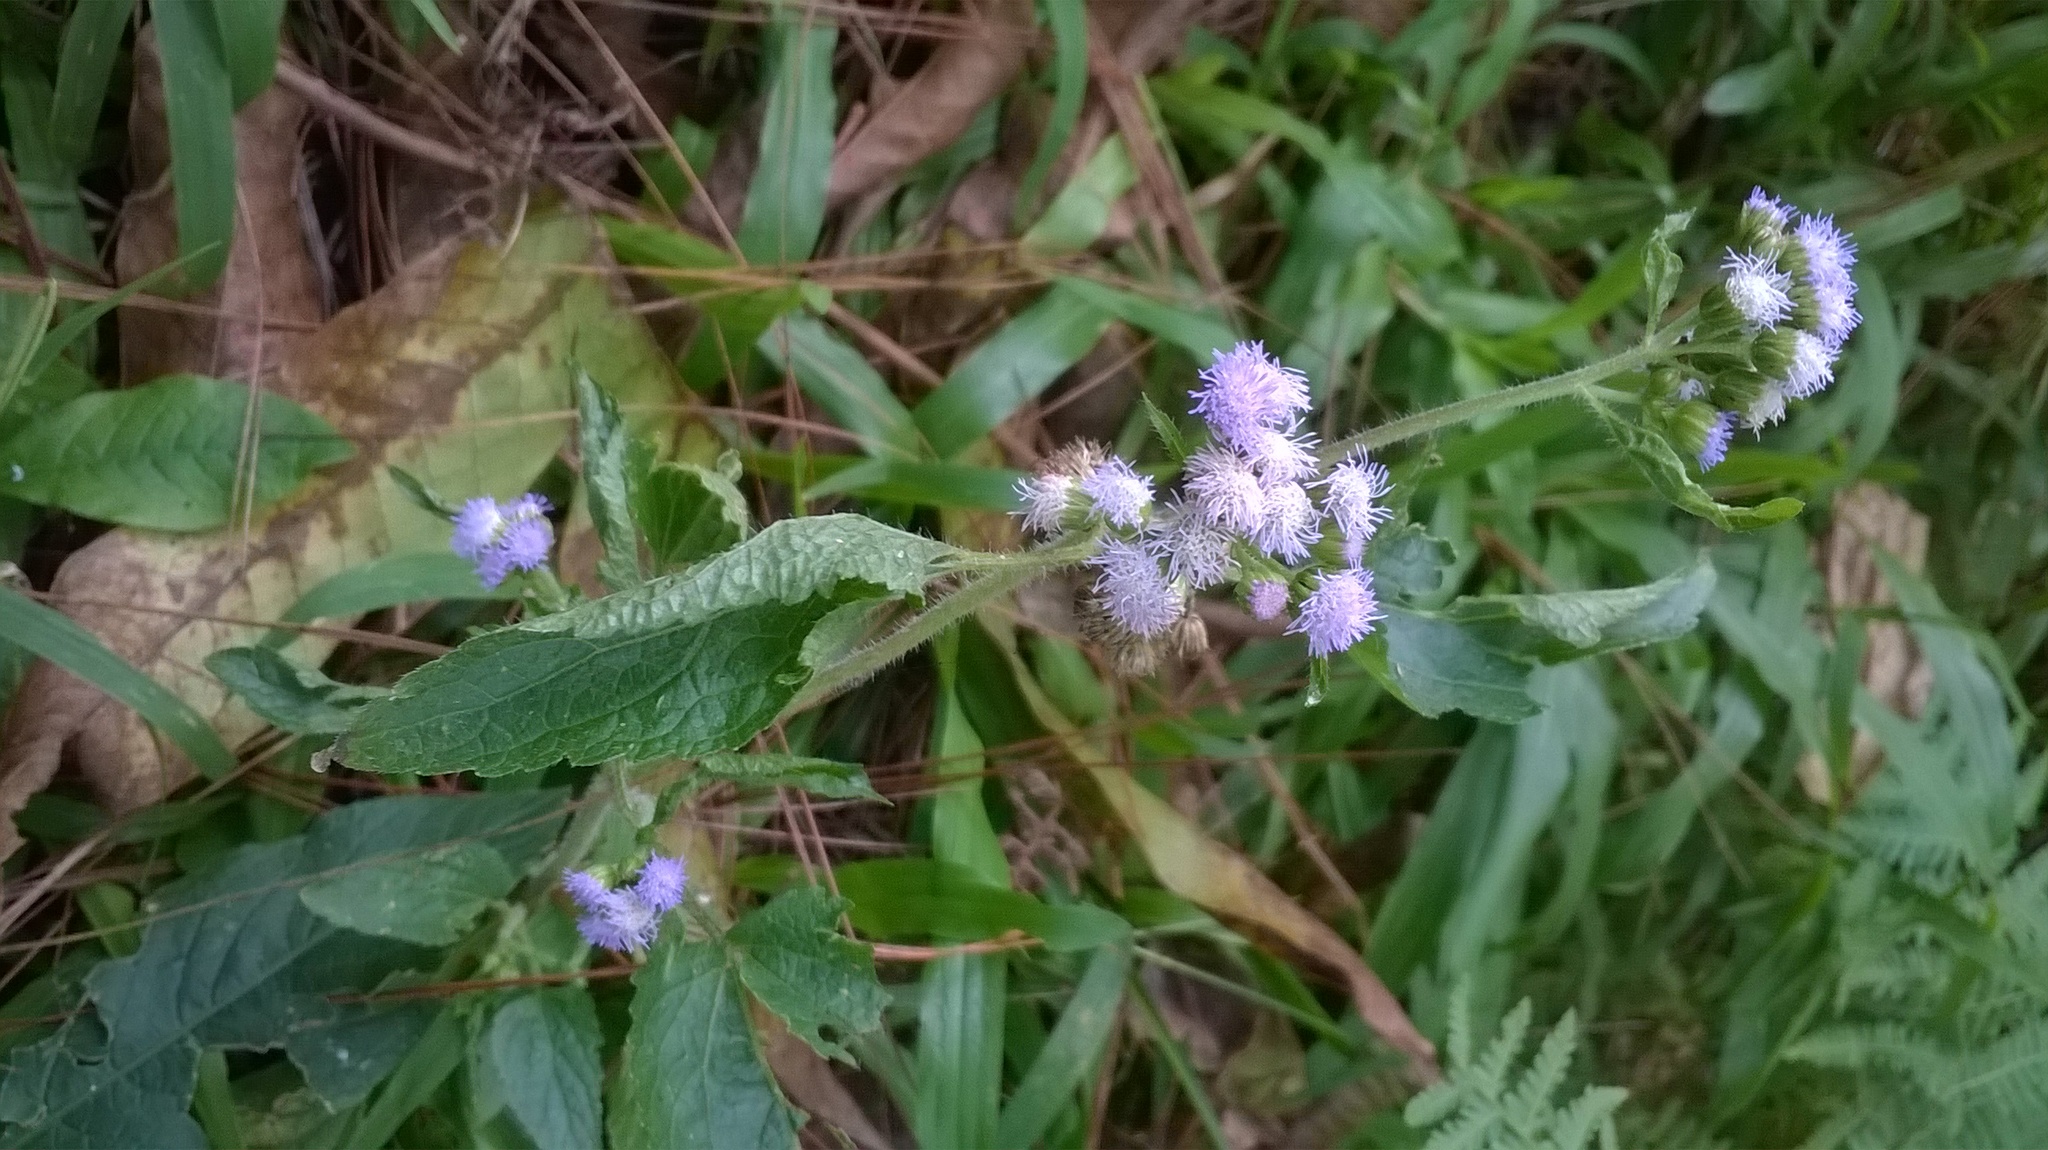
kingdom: Plantae
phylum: Tracheophyta
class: Magnoliopsida
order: Asterales
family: Asteraceae
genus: Ageratum
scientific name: Ageratum conyzoides
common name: Tropical whiteweed
